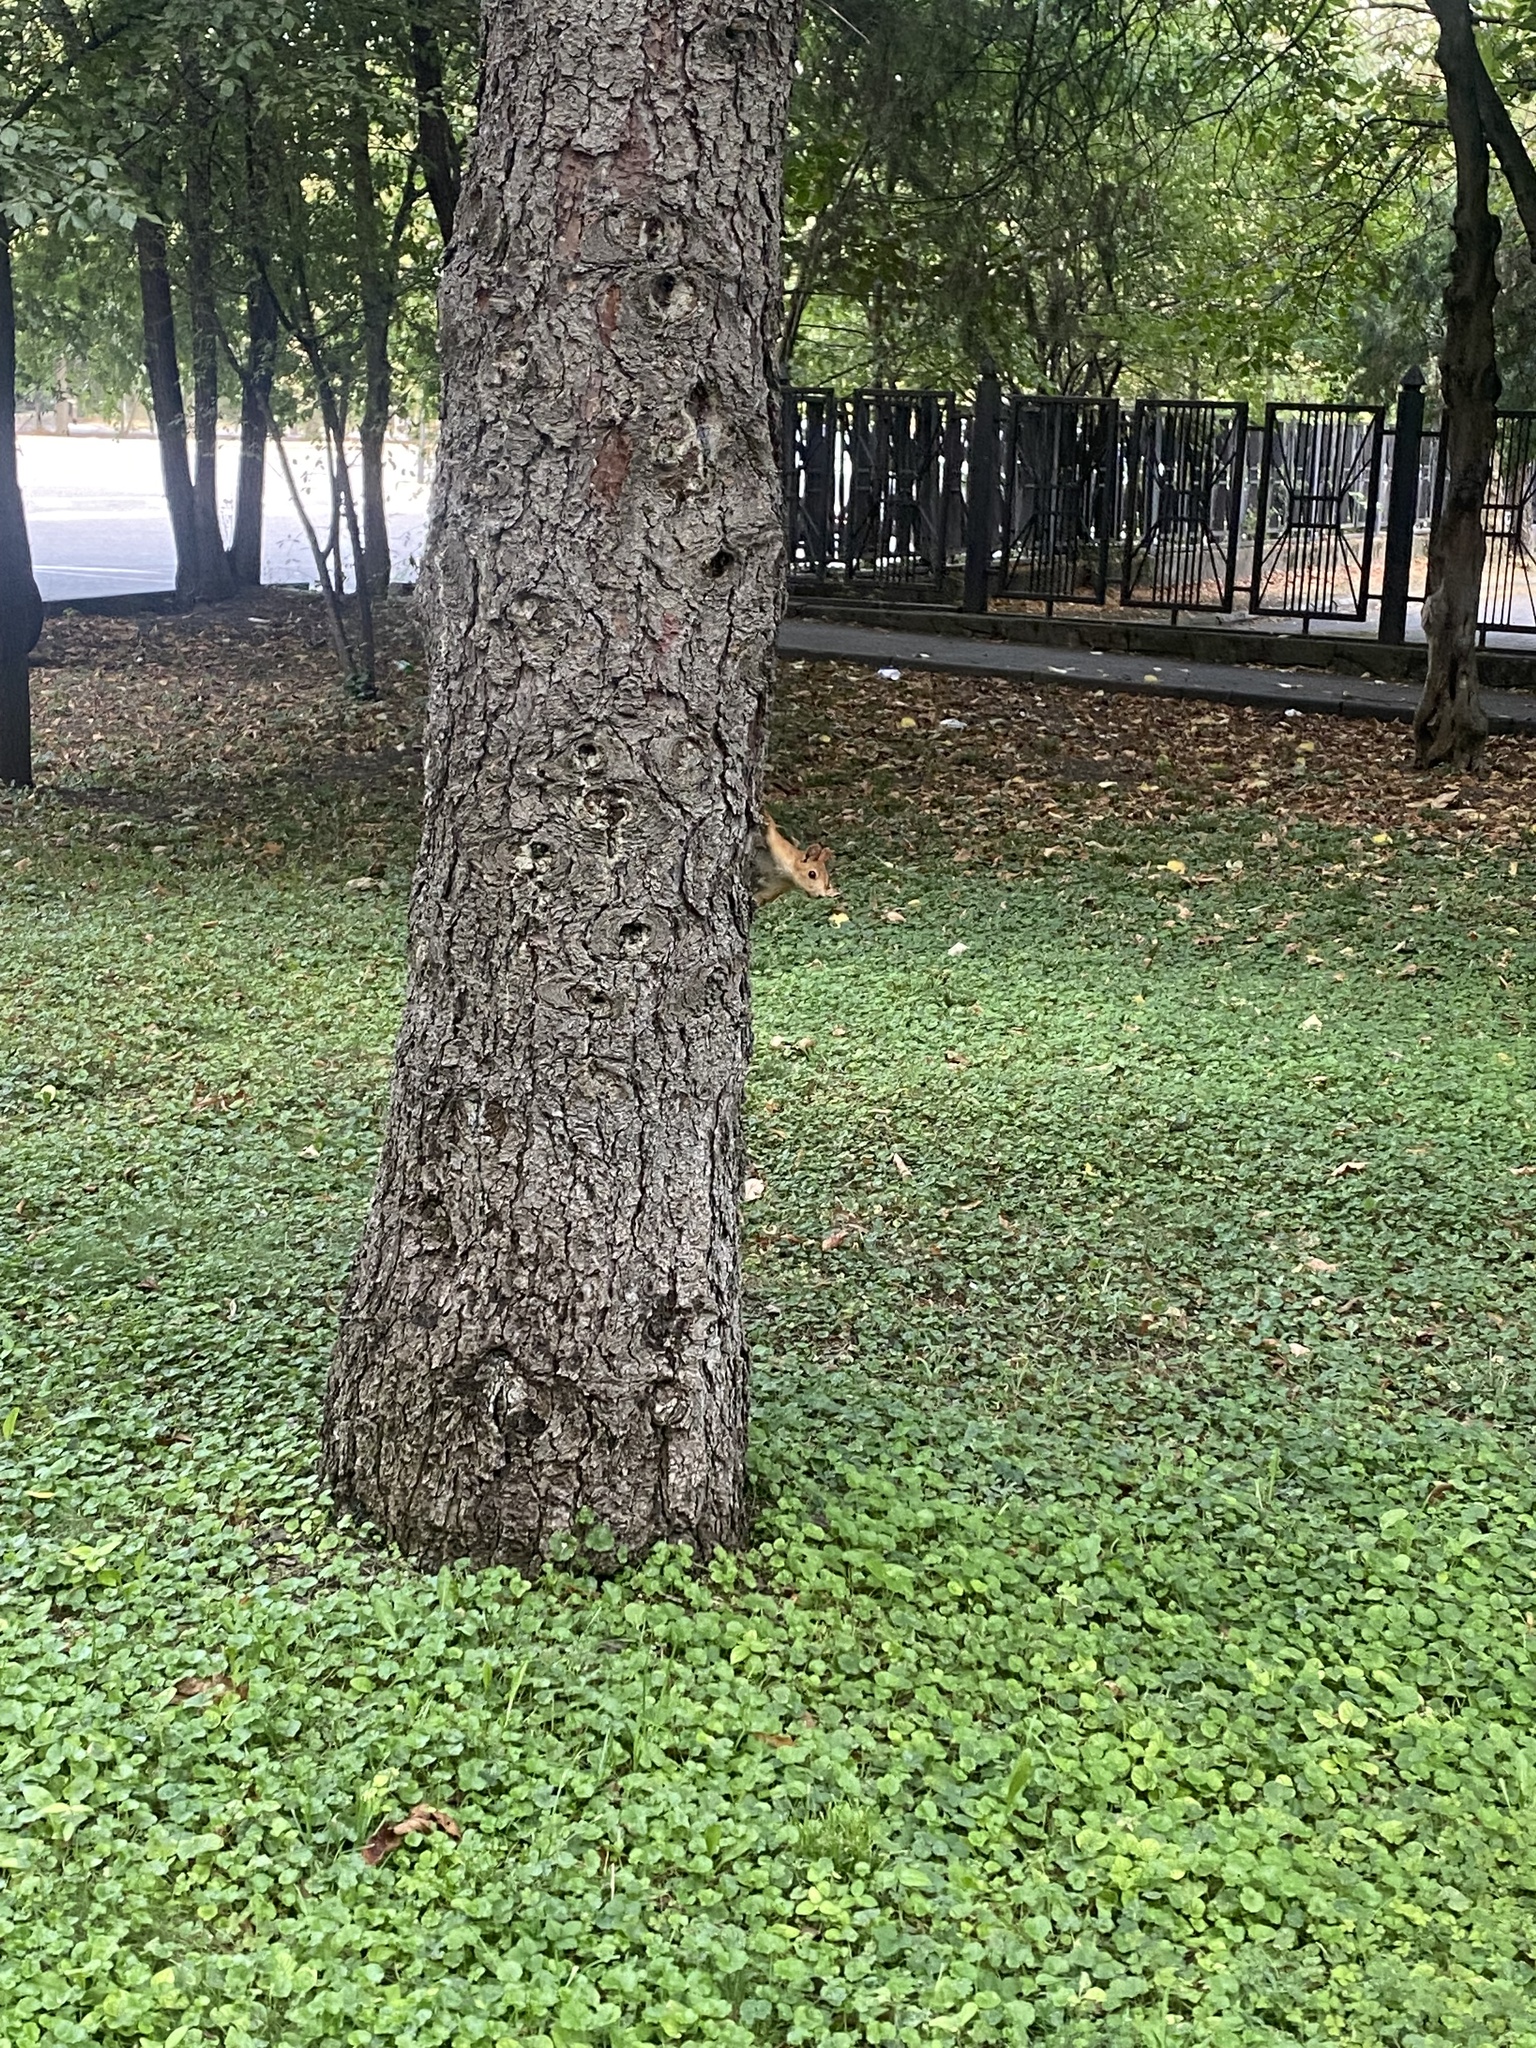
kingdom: Animalia
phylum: Chordata
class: Mammalia
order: Rodentia
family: Sciuridae
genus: Sciurus
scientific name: Sciurus vulgaris
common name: Eurasian red squirrel
